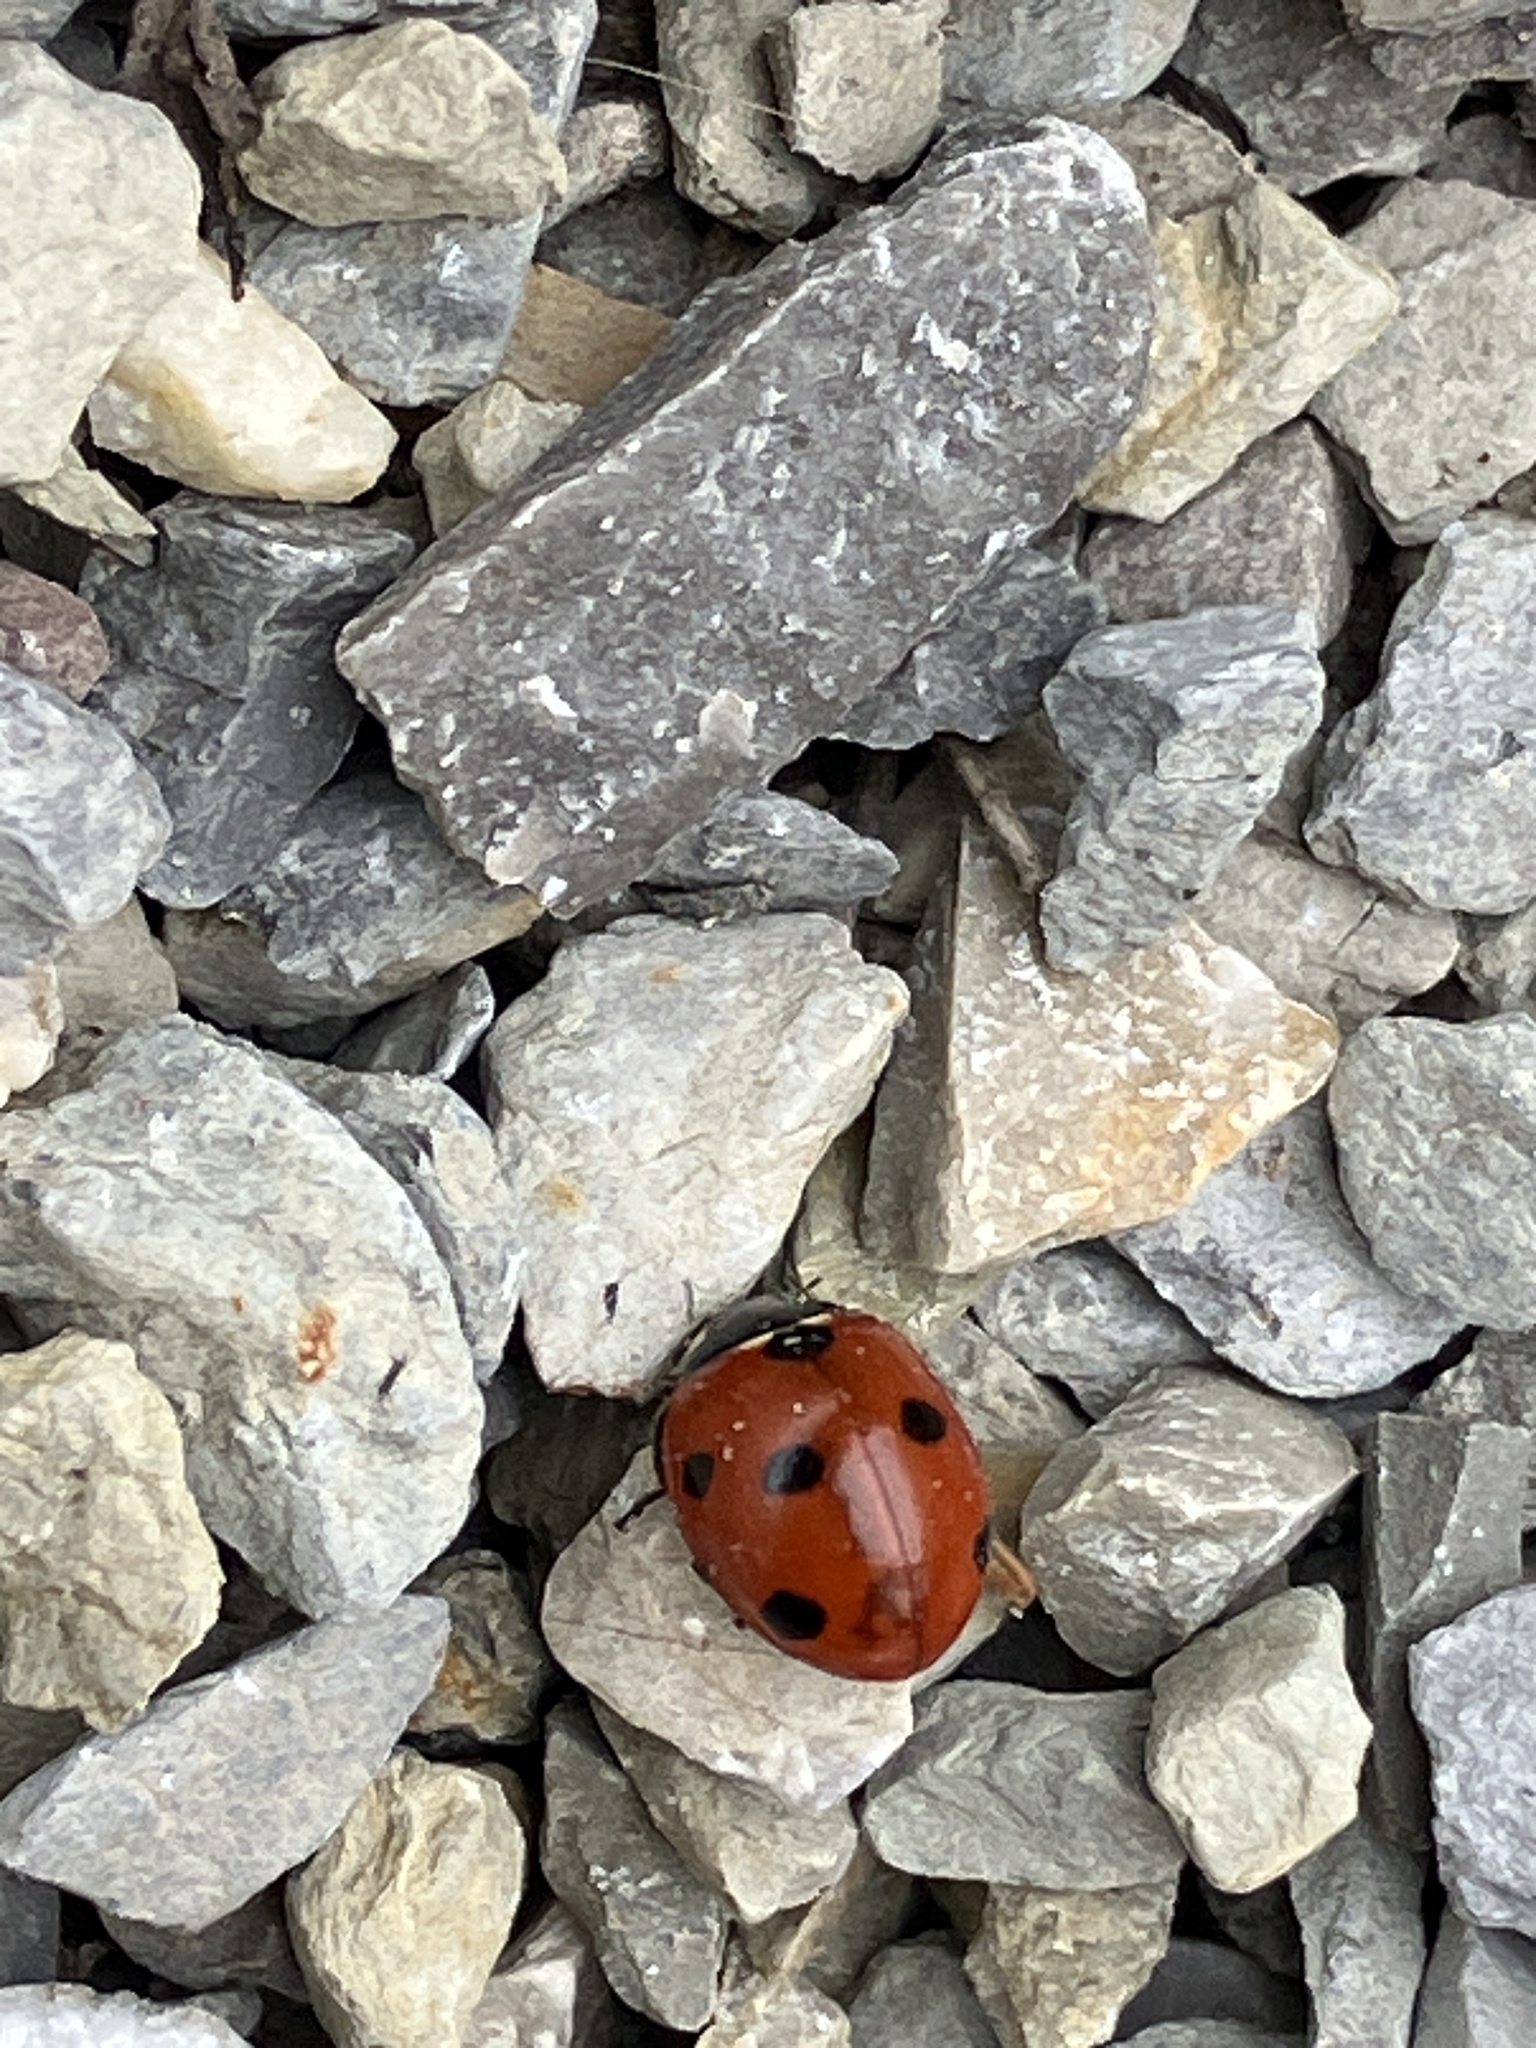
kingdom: Animalia
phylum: Arthropoda
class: Insecta
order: Coleoptera
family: Coccinellidae
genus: Coccinella
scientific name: Coccinella septempunctata
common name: Sevenspotted lady beetle
